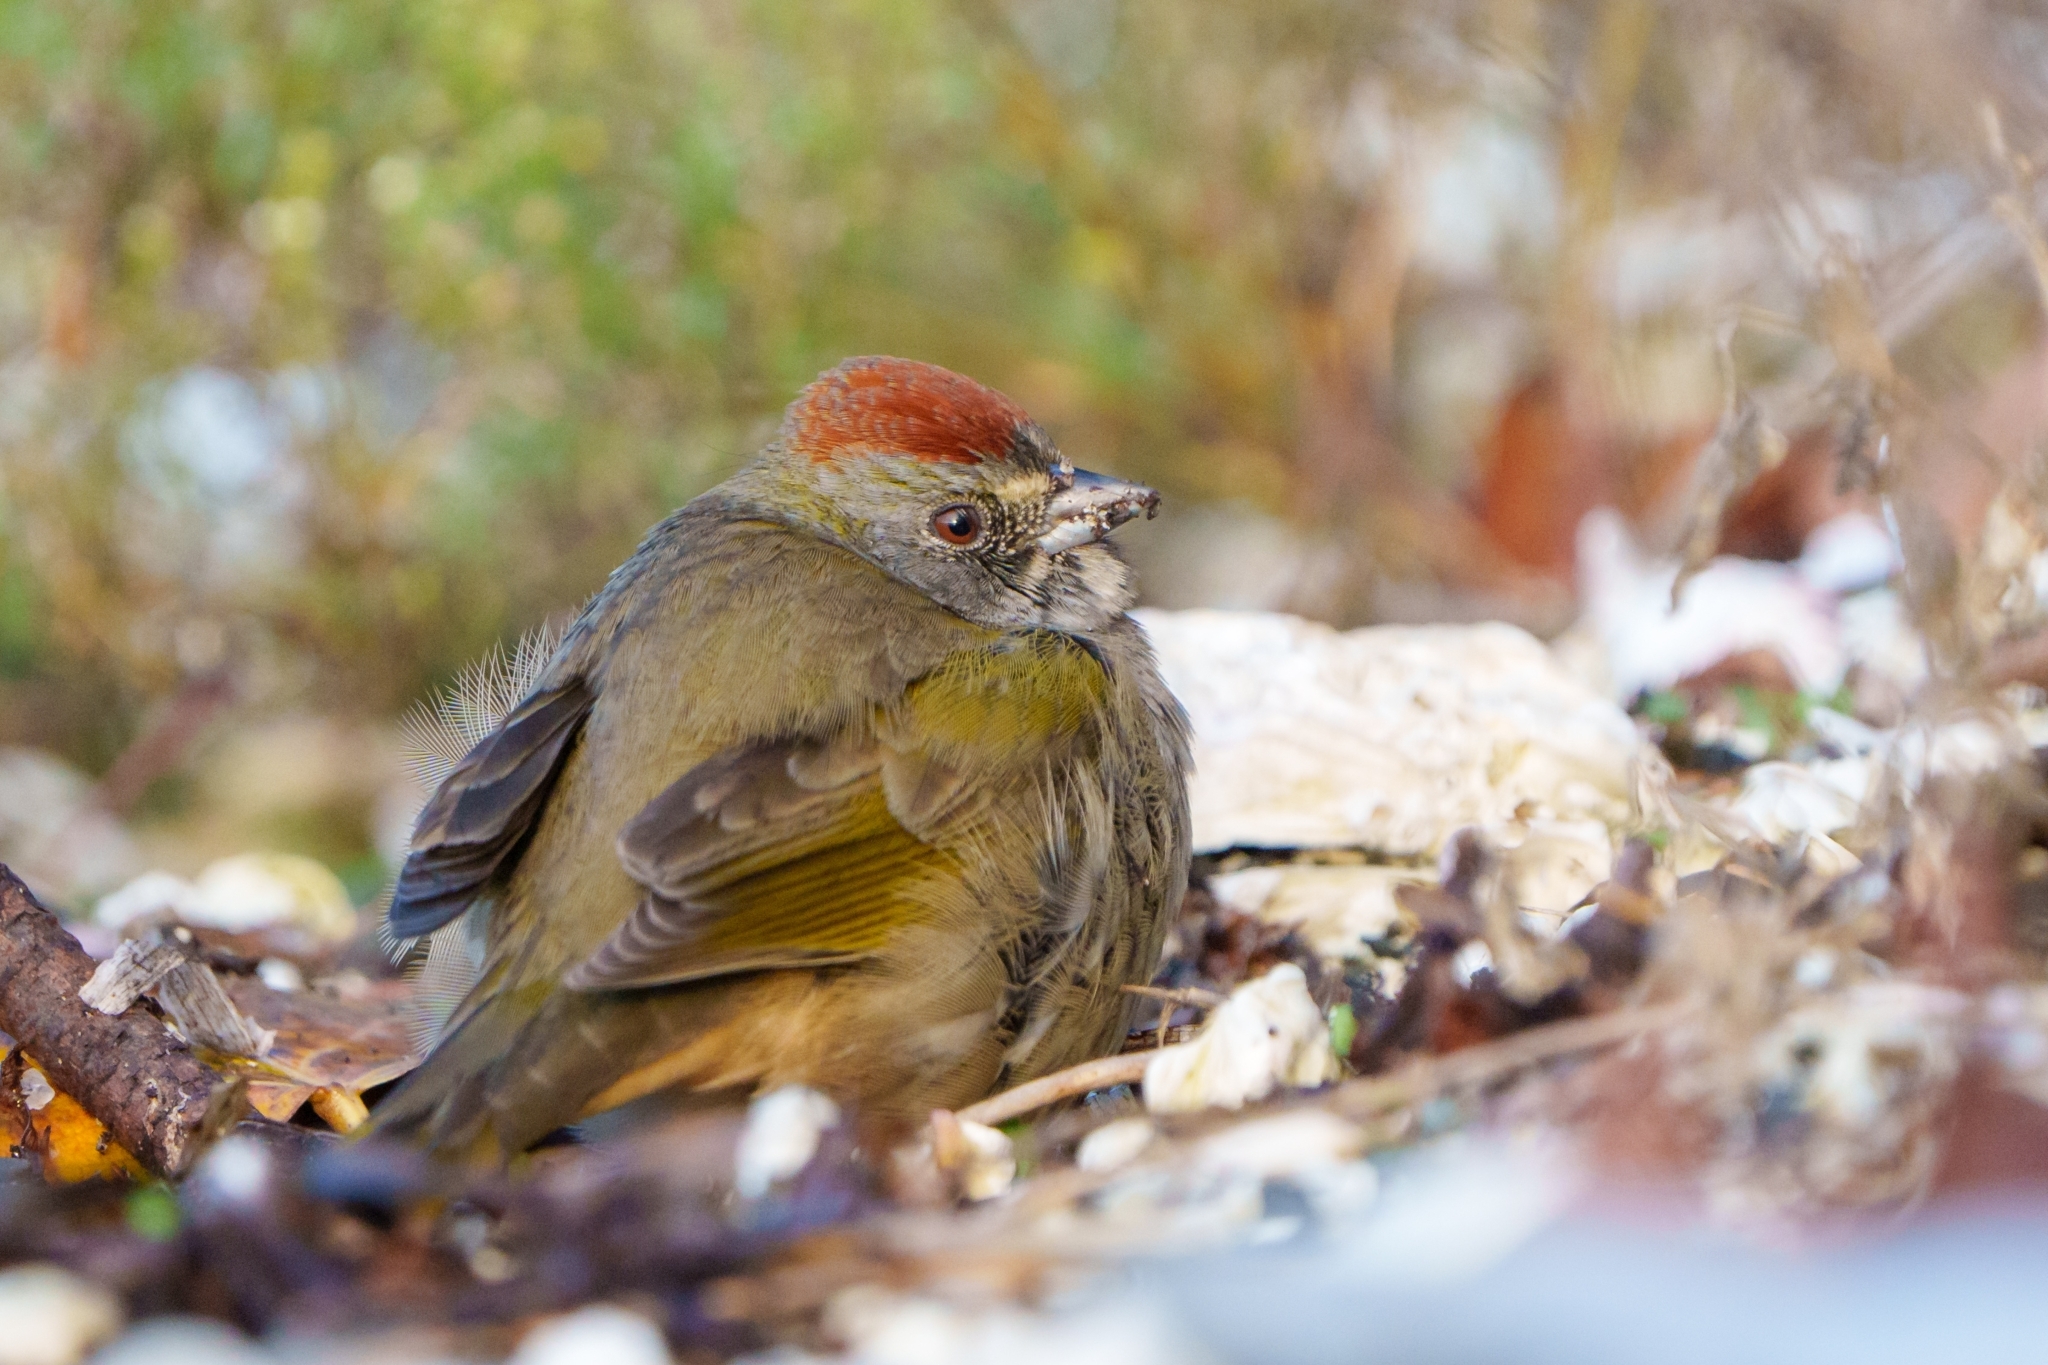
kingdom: Animalia
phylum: Chordata
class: Aves
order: Passeriformes
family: Passerellidae
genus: Pipilo
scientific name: Pipilo chlorurus
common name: Green-tailed towhee
